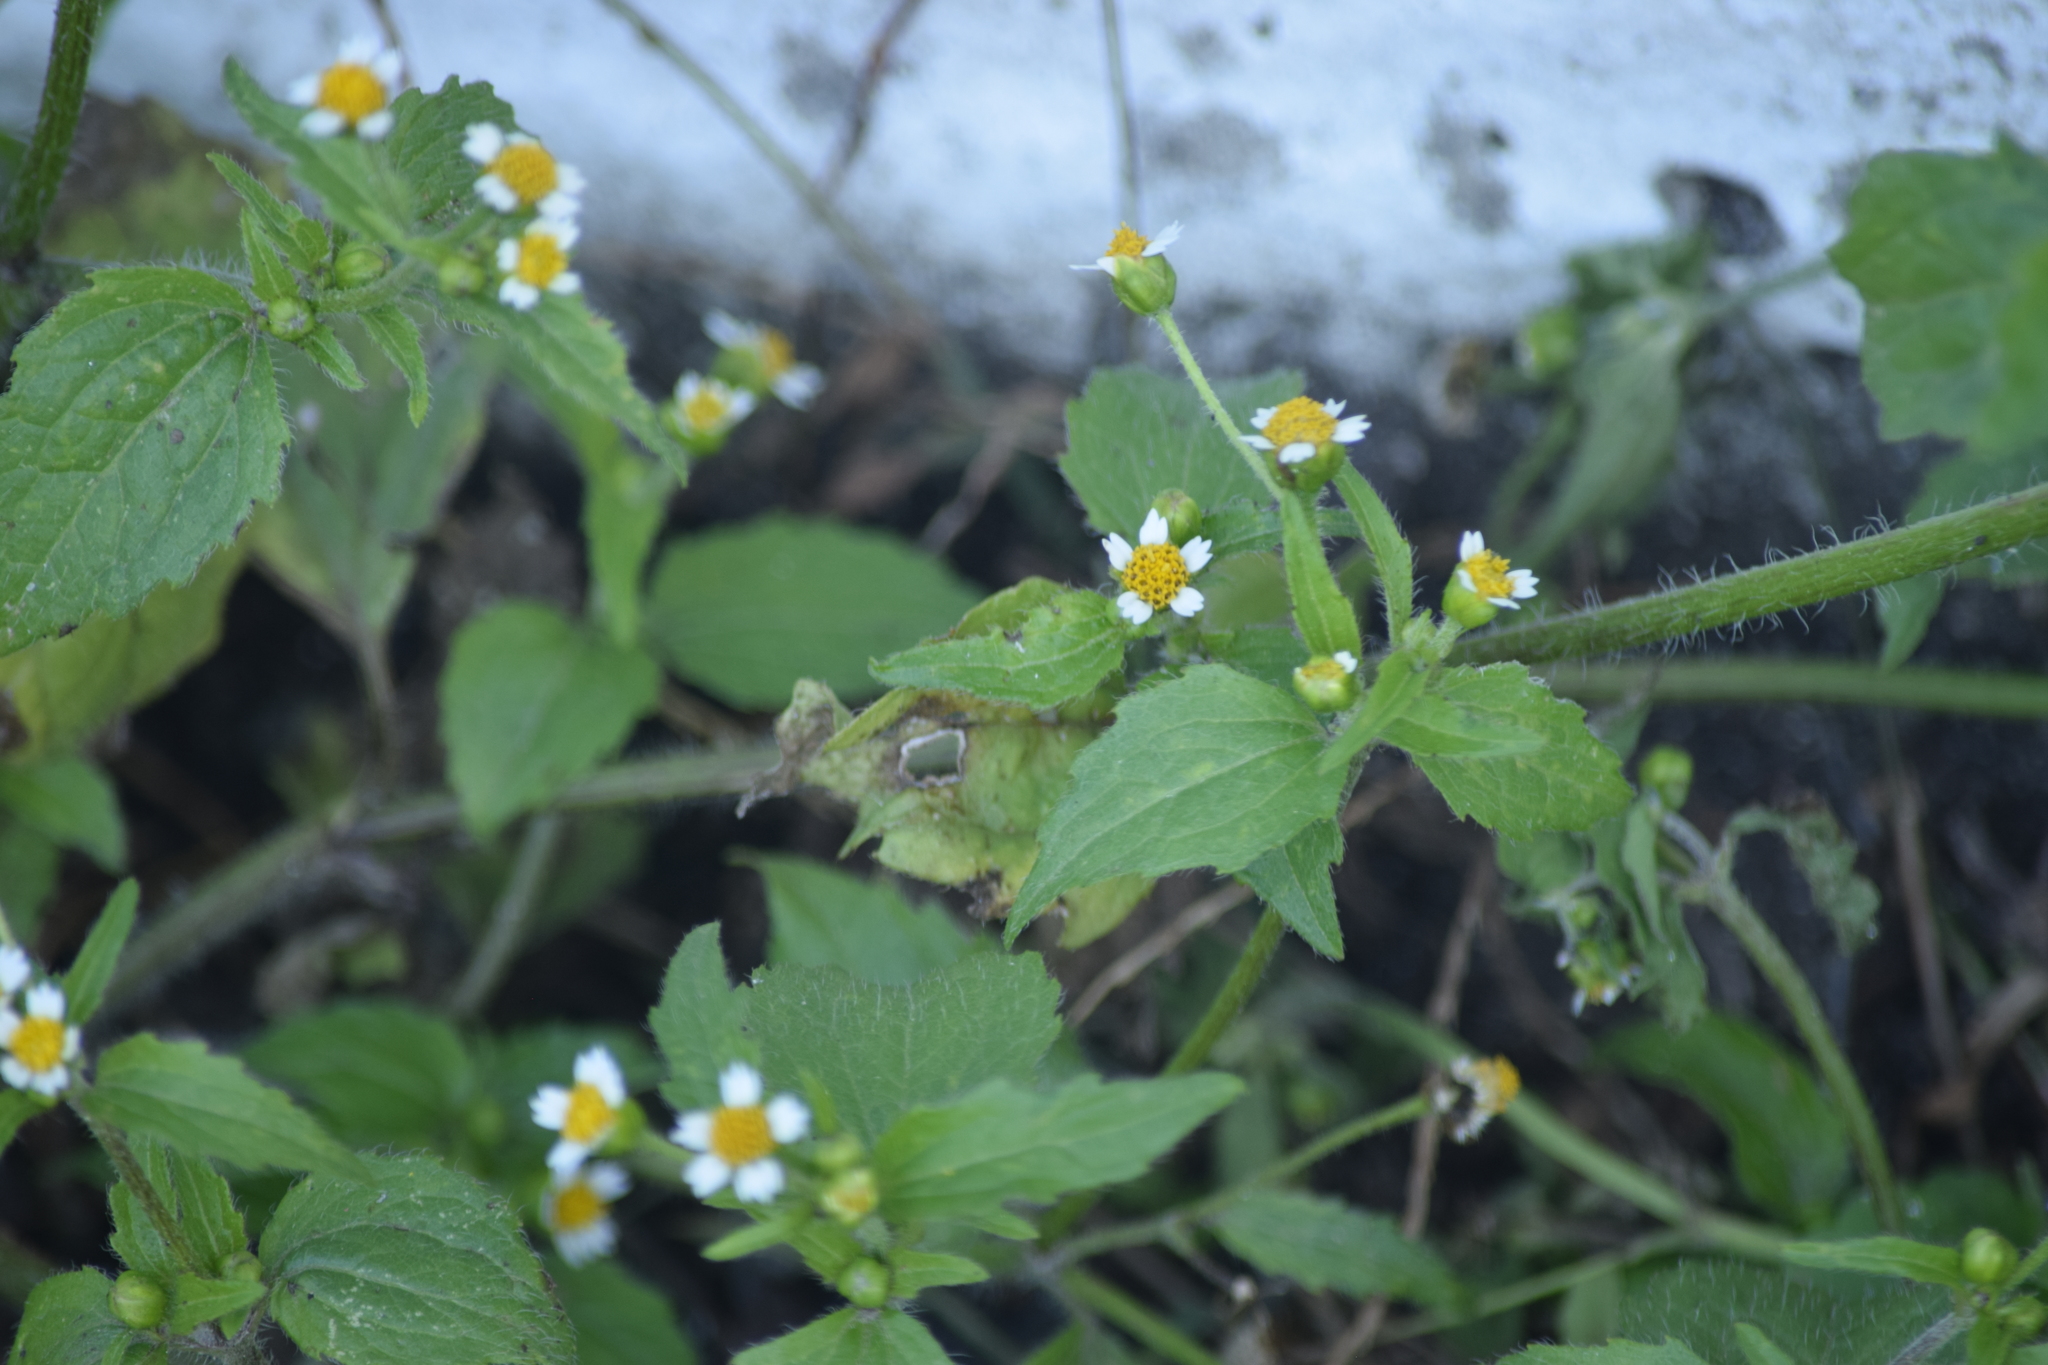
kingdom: Plantae
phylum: Tracheophyta
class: Magnoliopsida
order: Asterales
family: Asteraceae
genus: Galinsoga
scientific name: Galinsoga quadriradiata
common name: Shaggy soldier
